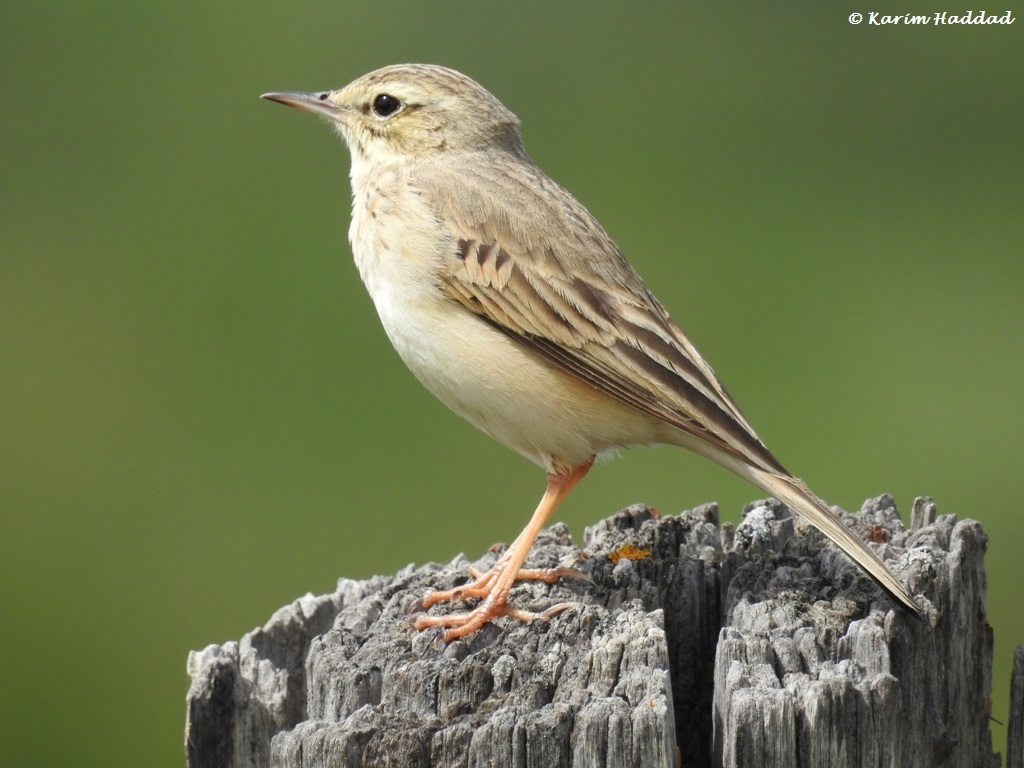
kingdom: Animalia
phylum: Chordata
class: Aves
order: Passeriformes
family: Motacillidae
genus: Anthus
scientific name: Anthus campestris
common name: Tawny pipit
